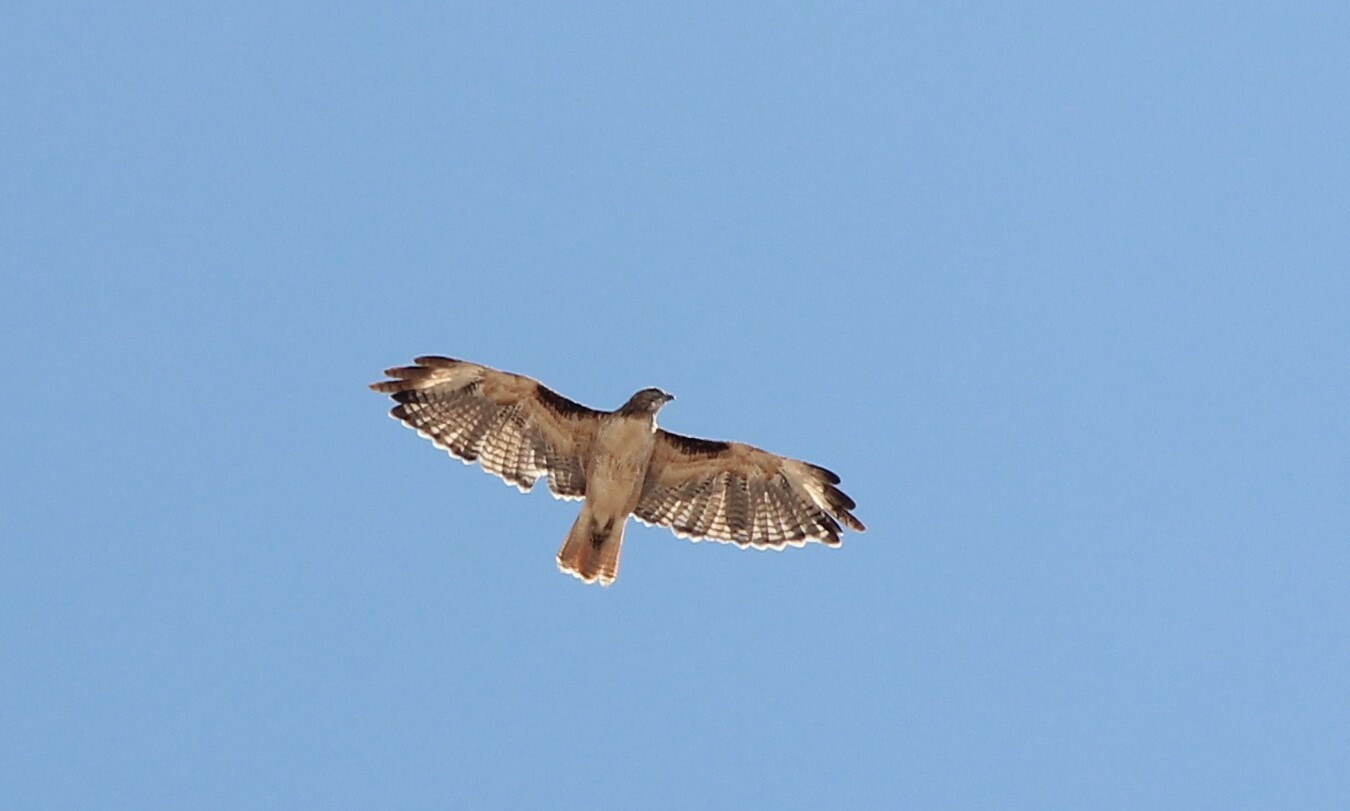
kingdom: Animalia
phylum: Chordata
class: Aves
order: Accipitriformes
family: Accipitridae
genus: Buteo
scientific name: Buteo jamaicensis
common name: Red-tailed hawk
